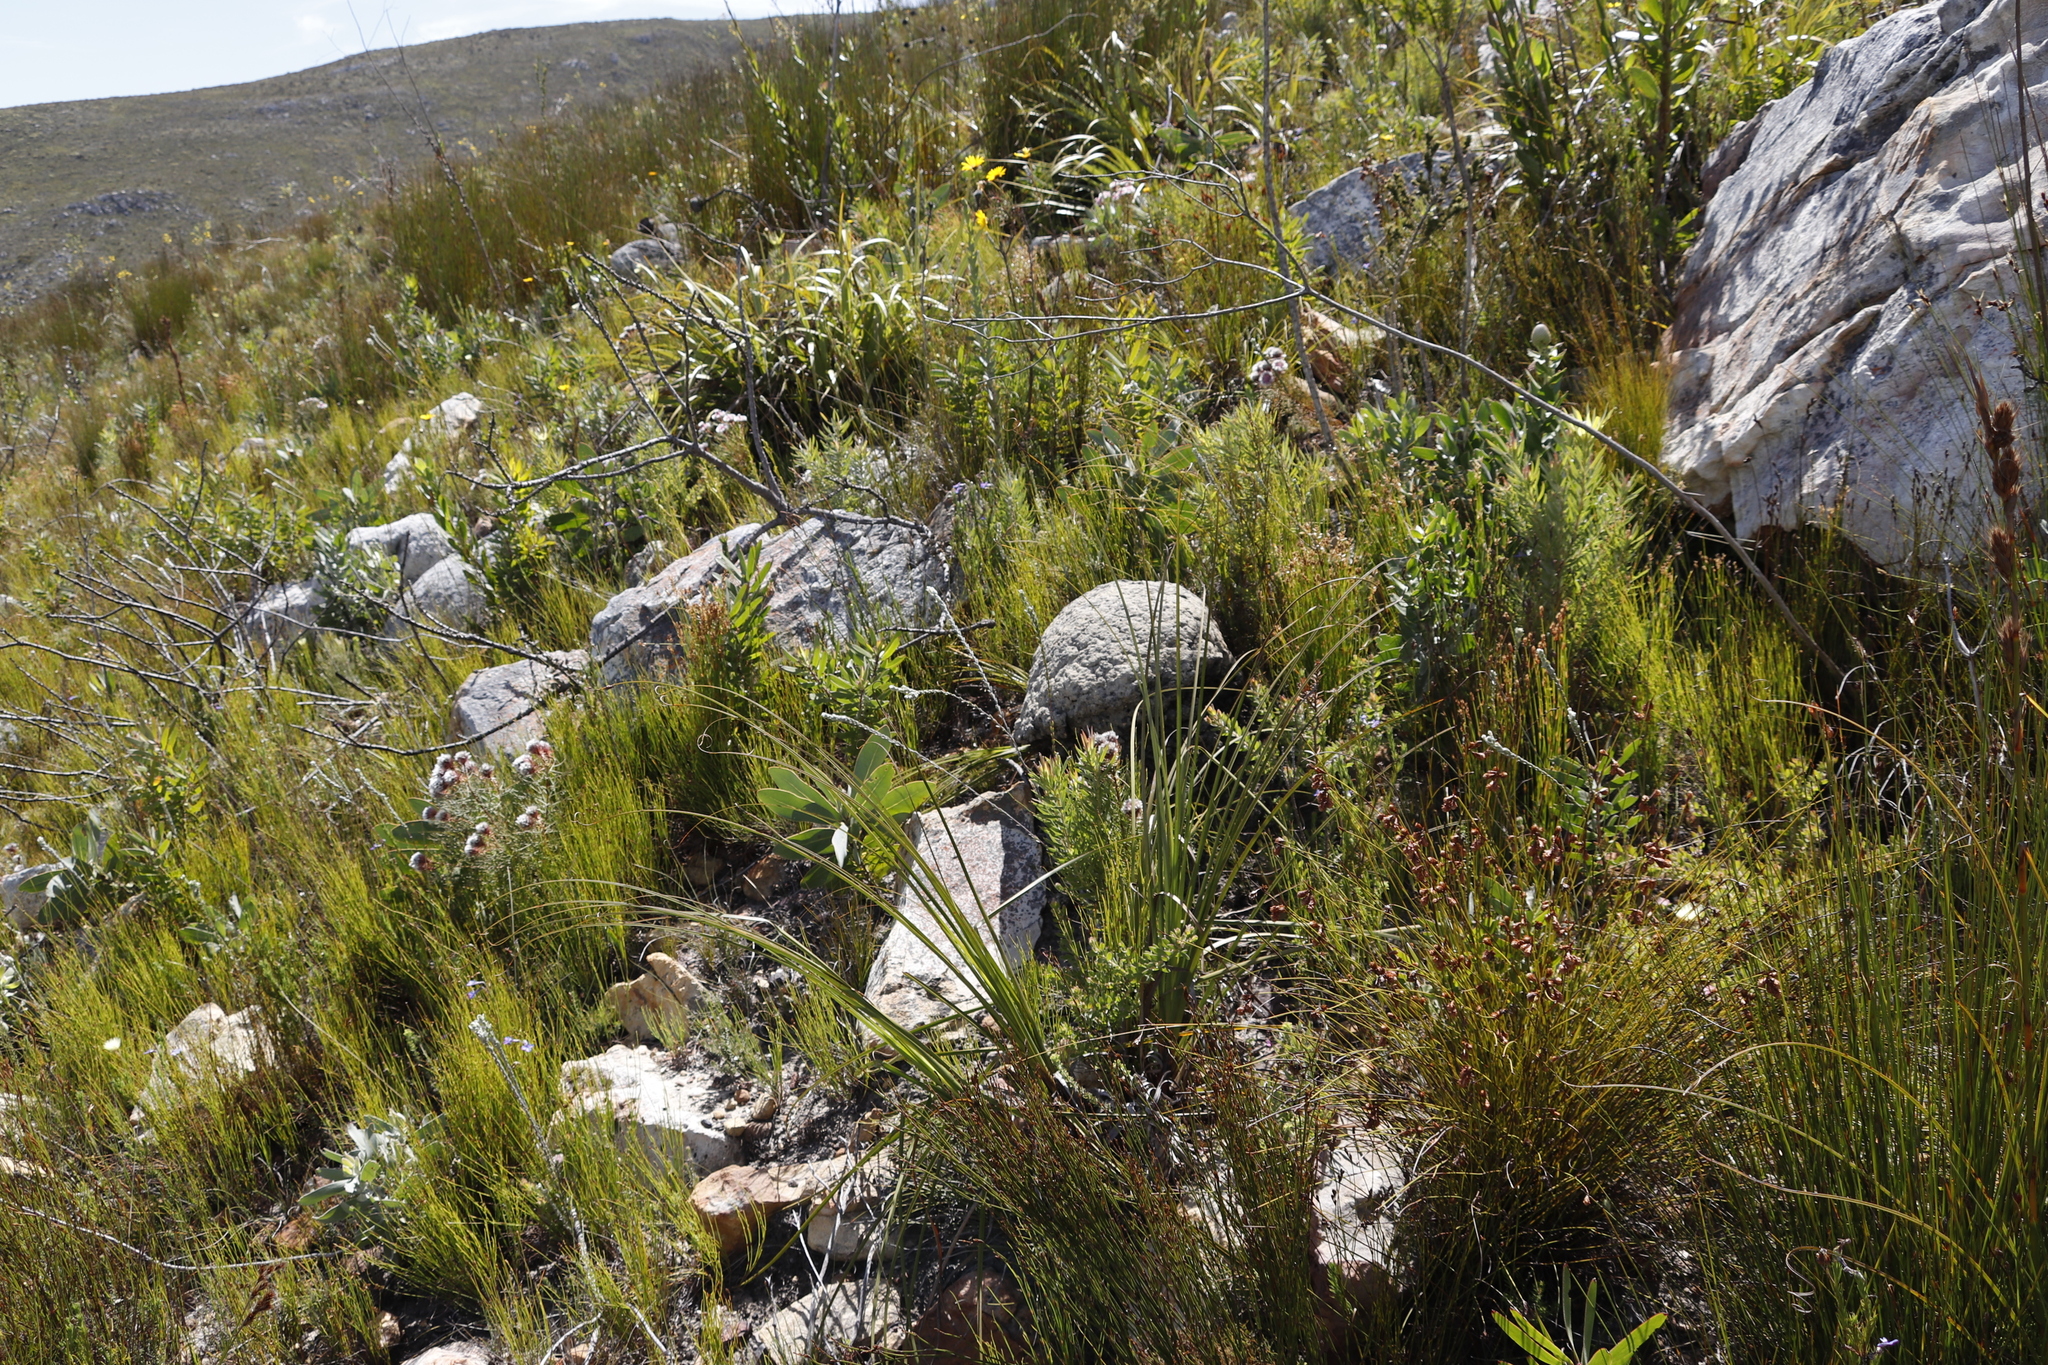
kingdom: Plantae
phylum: Tracheophyta
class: Magnoliopsida
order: Proteales
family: Proteaceae
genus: Protea
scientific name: Protea magnifica
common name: Bearded sugarbush
